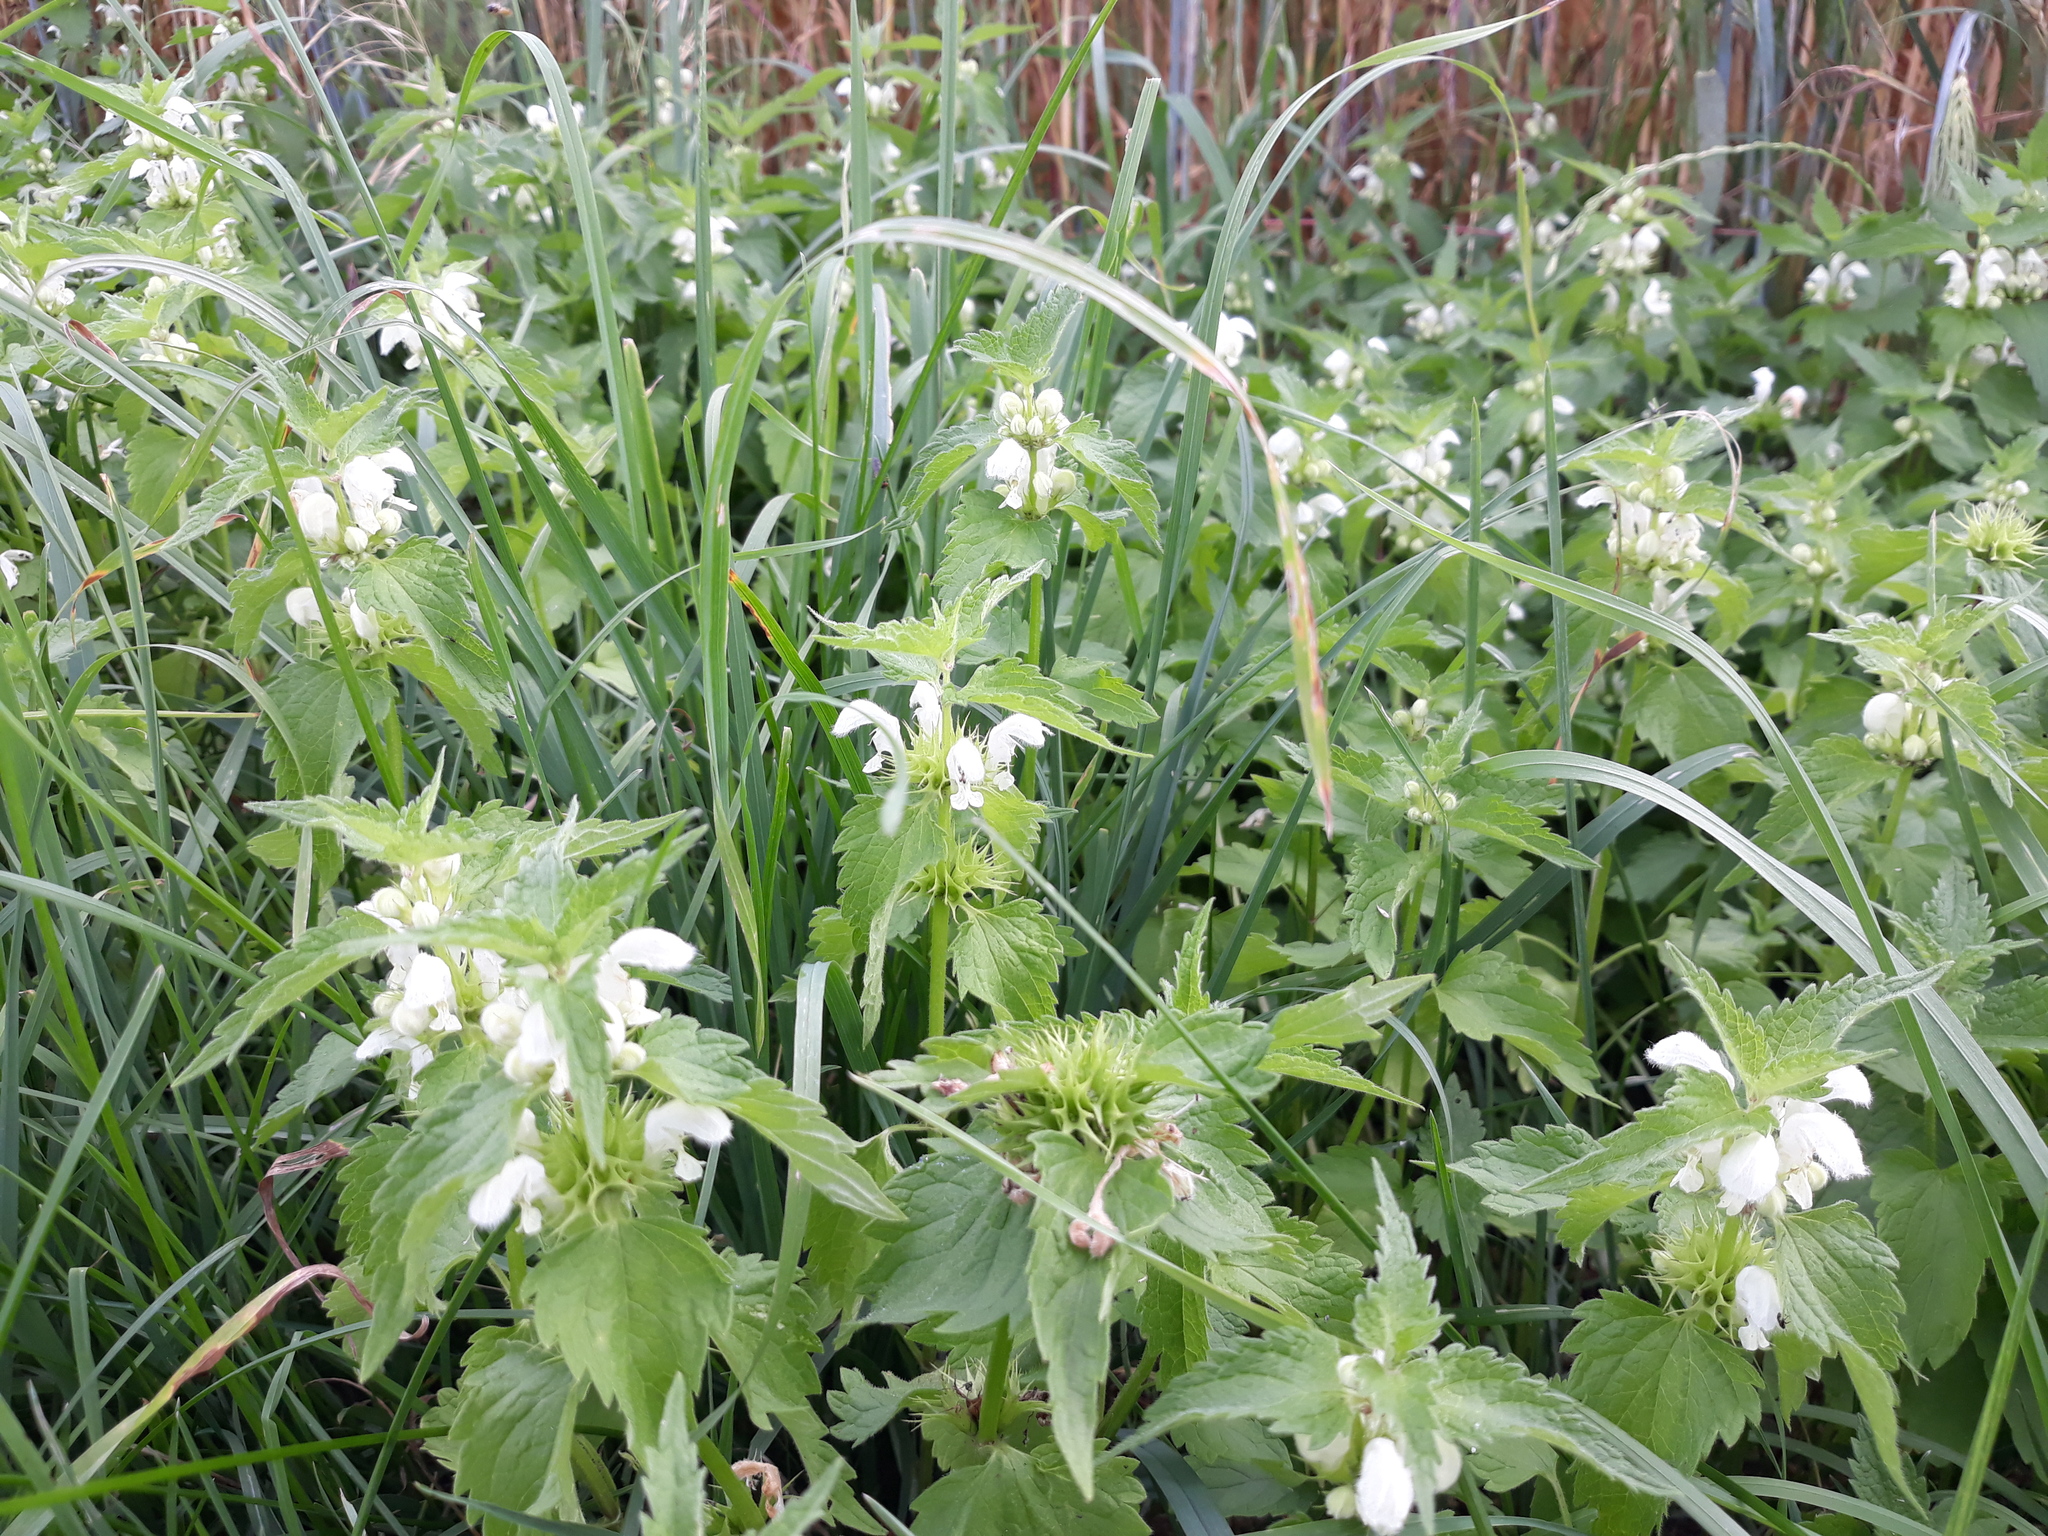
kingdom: Plantae
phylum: Tracheophyta
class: Magnoliopsida
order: Lamiales
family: Lamiaceae
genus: Lamium
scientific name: Lamium album
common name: White dead-nettle
